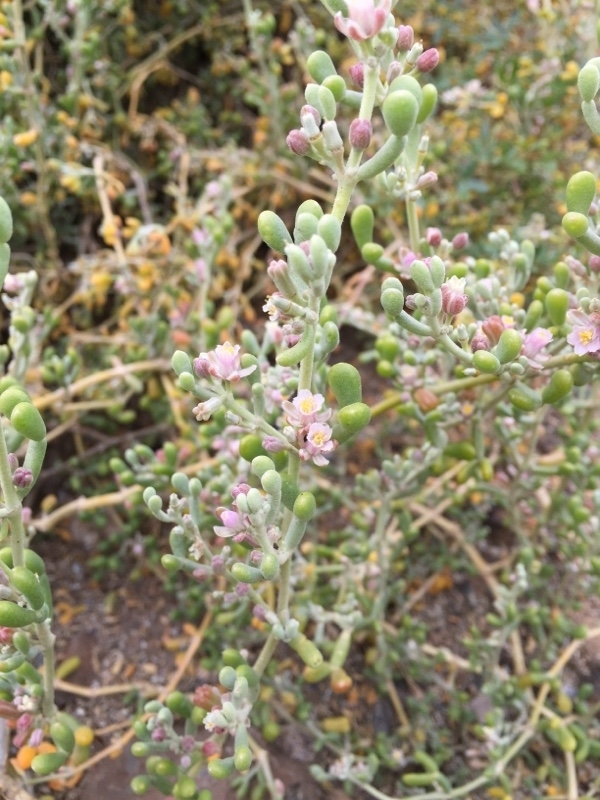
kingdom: Plantae
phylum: Tracheophyta
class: Magnoliopsida
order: Zygophyllales
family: Zygophyllaceae
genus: Tetraena
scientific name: Tetraena fontanesii
